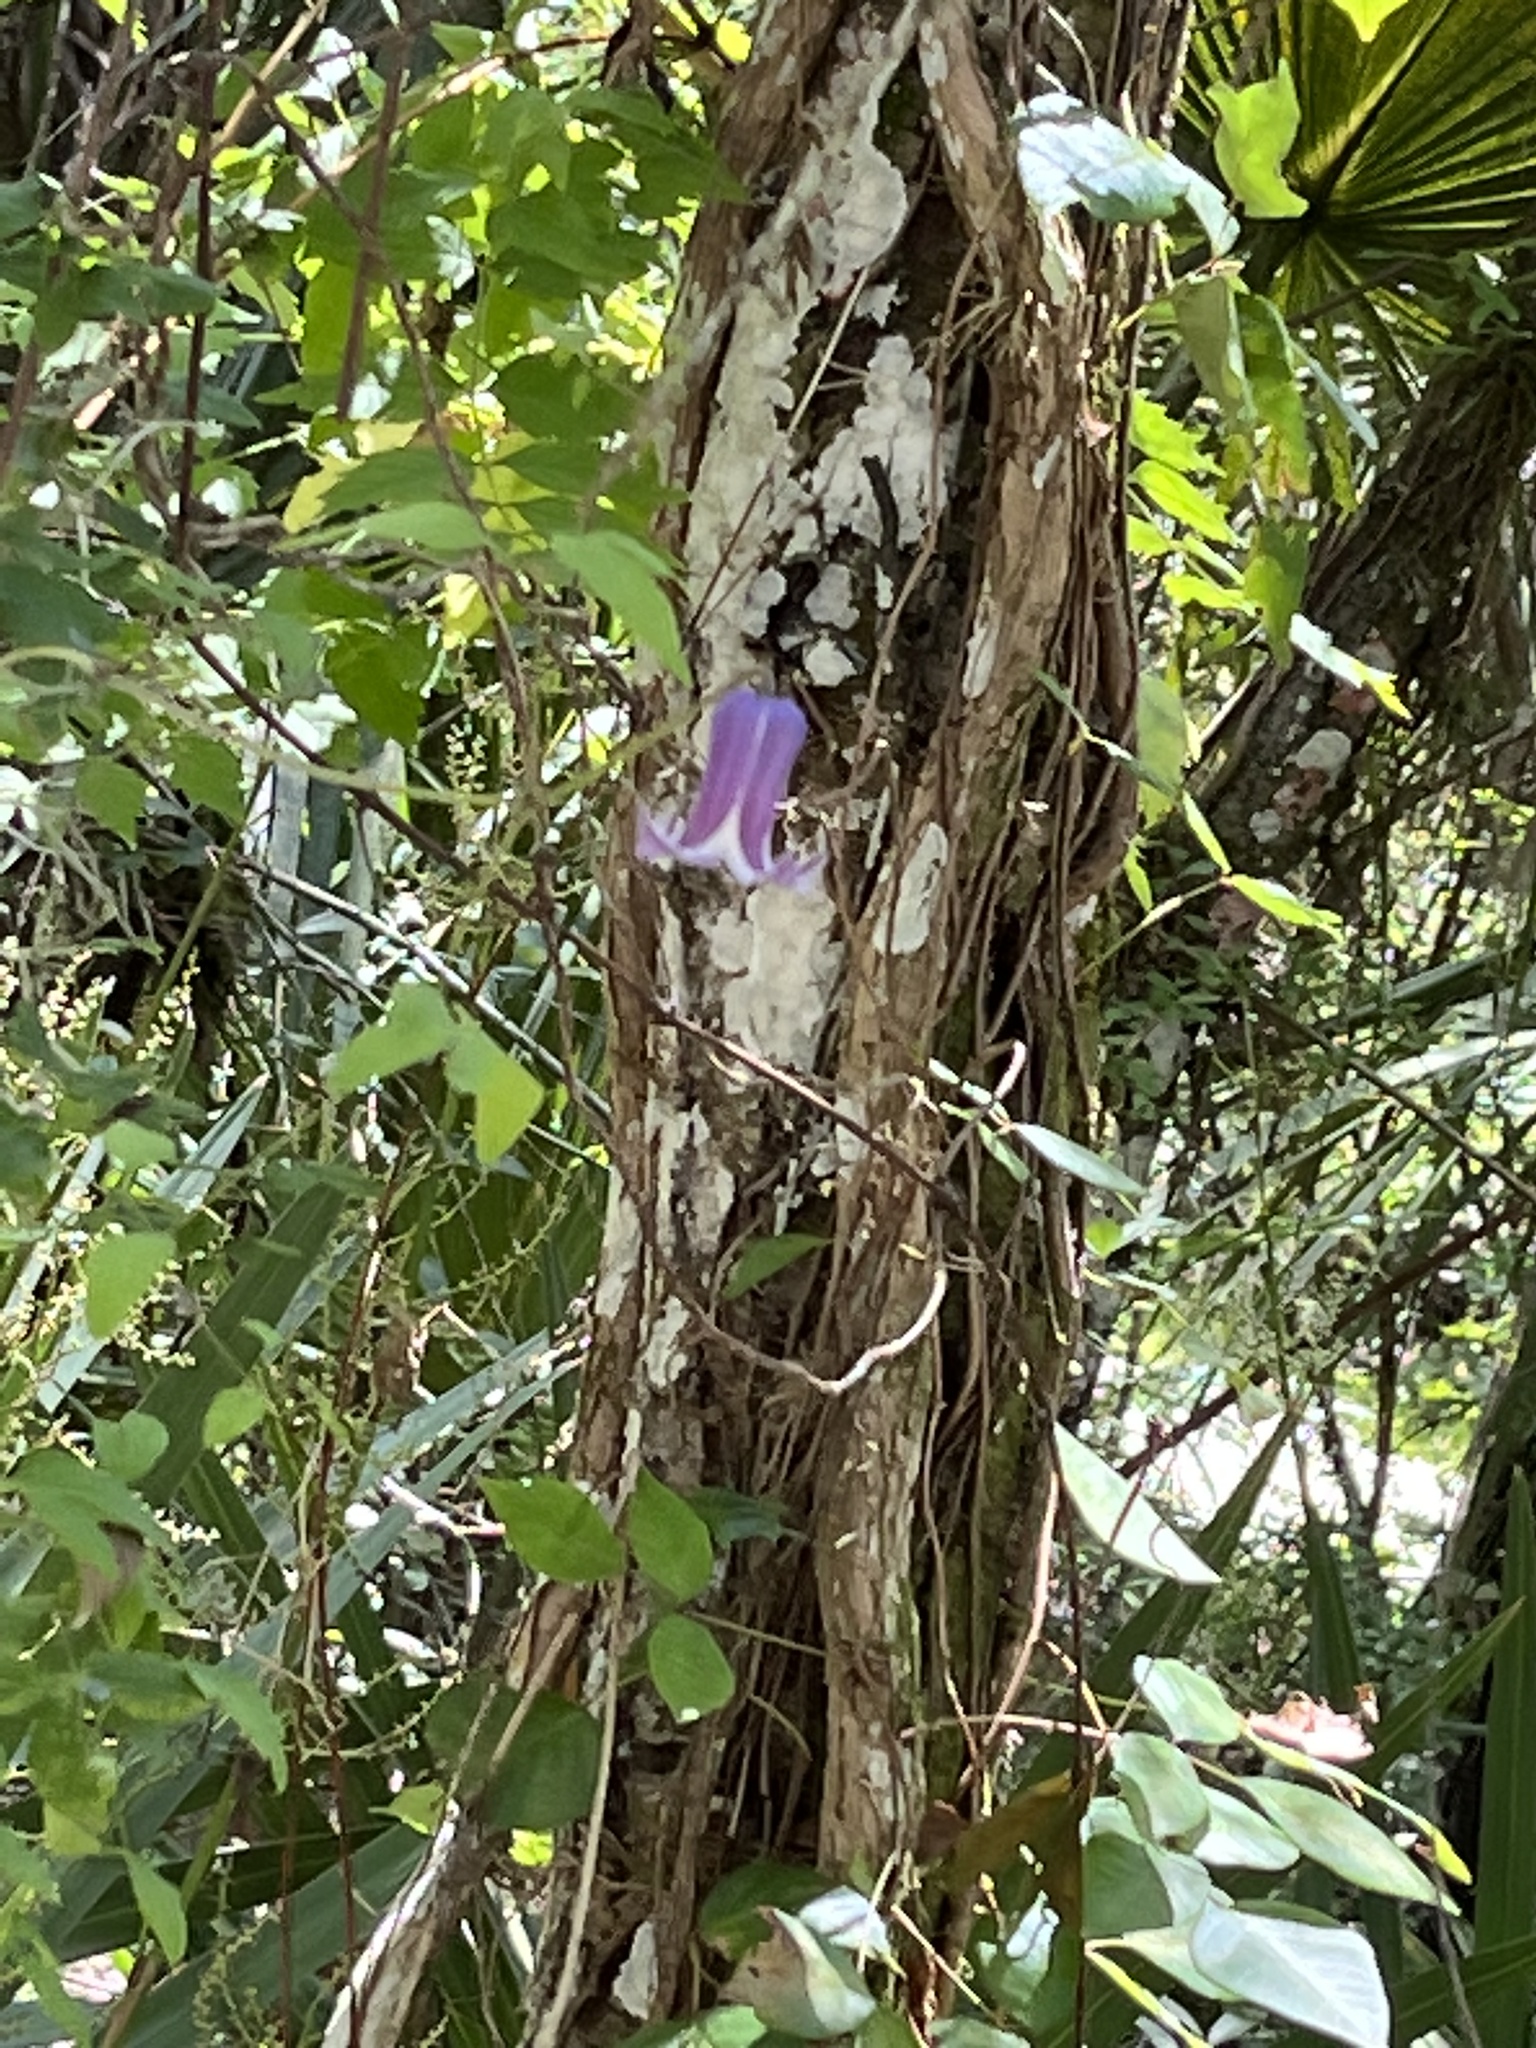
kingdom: Plantae
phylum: Tracheophyta
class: Magnoliopsida
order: Ranunculales
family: Ranunculaceae
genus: Clematis
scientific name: Clematis crispa
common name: Curly clematis
